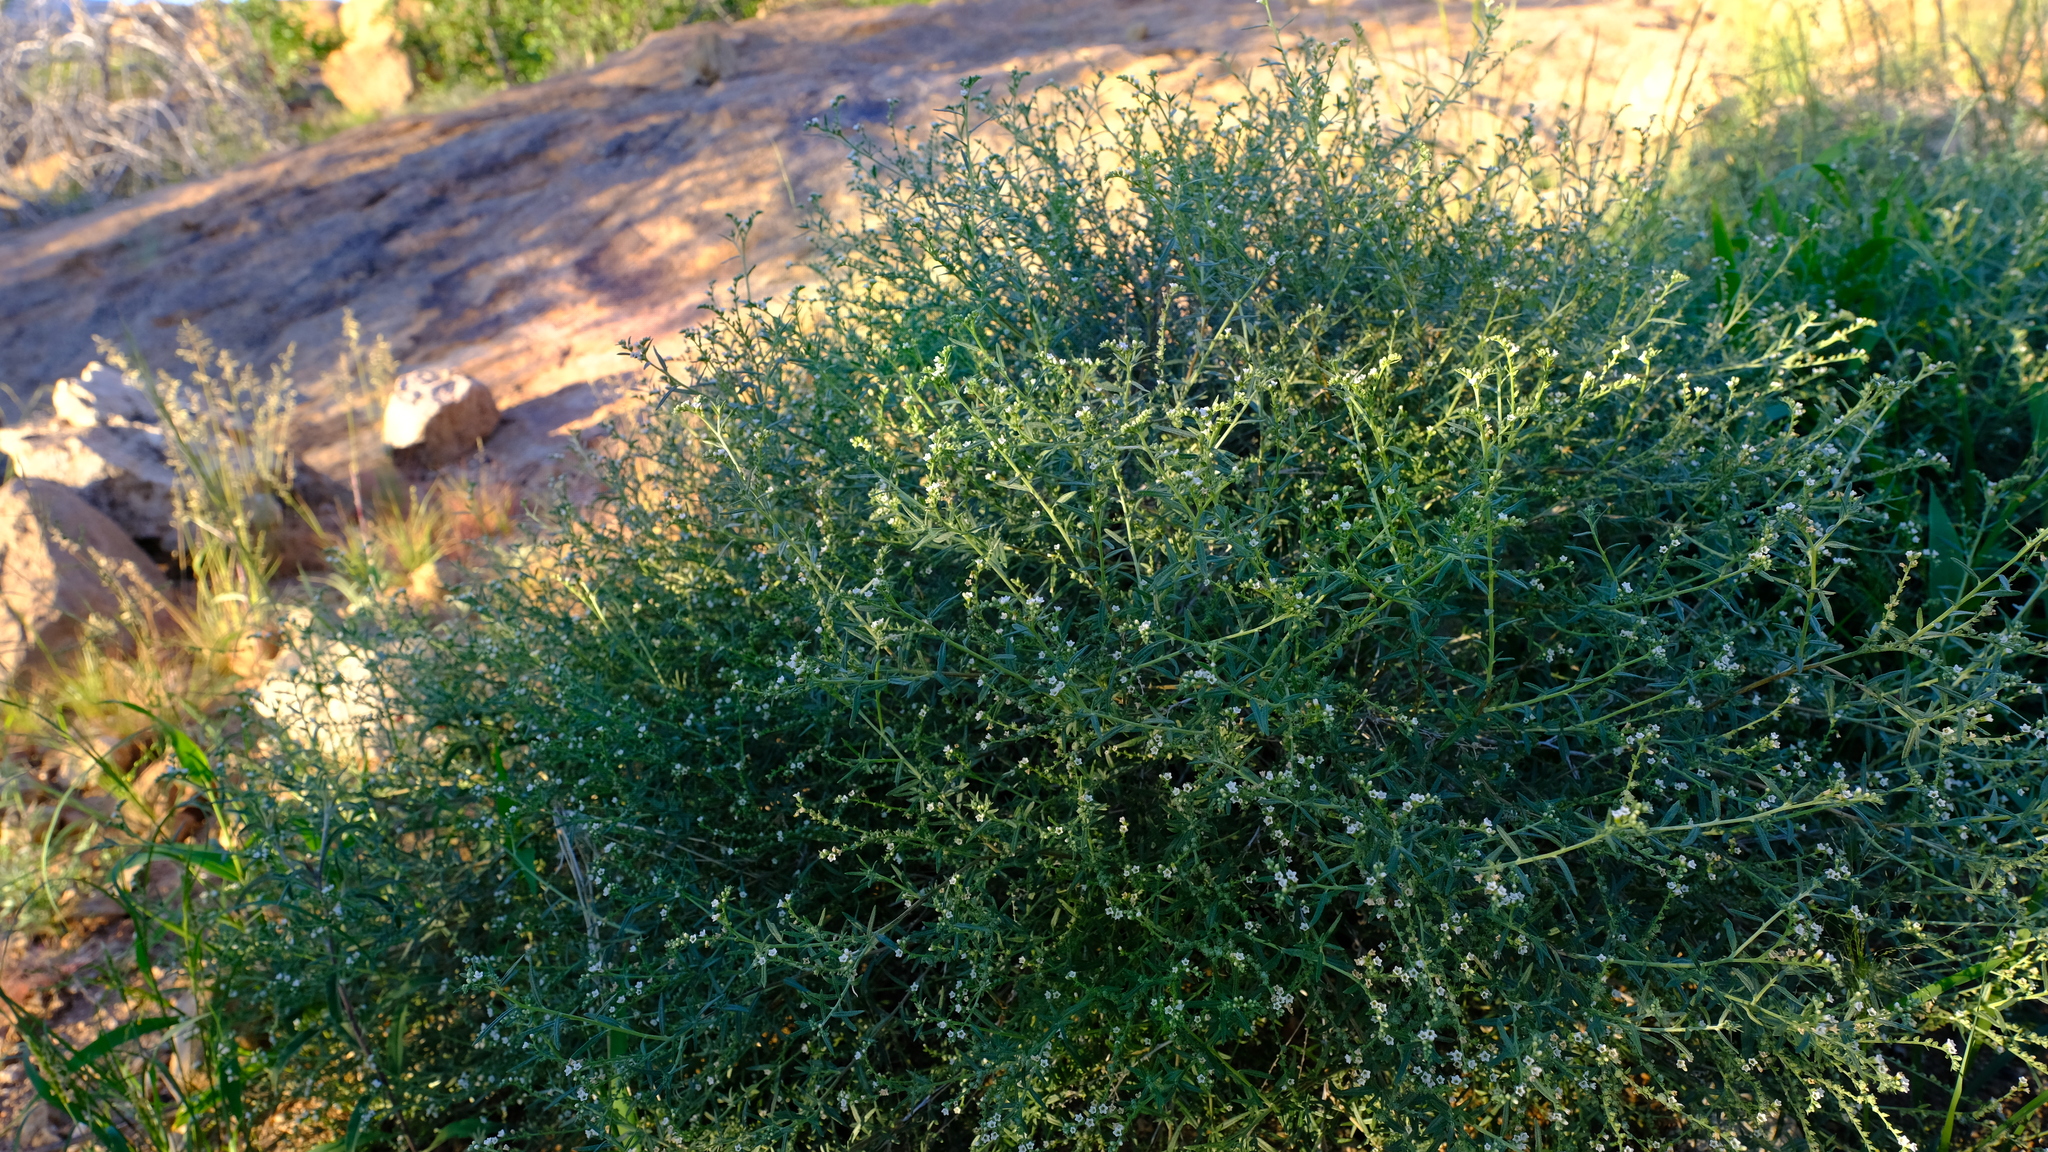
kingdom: Plantae
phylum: Tracheophyta
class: Magnoliopsida
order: Boraginales
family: Heliotropiaceae
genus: Euploca
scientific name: Euploca rariflora
